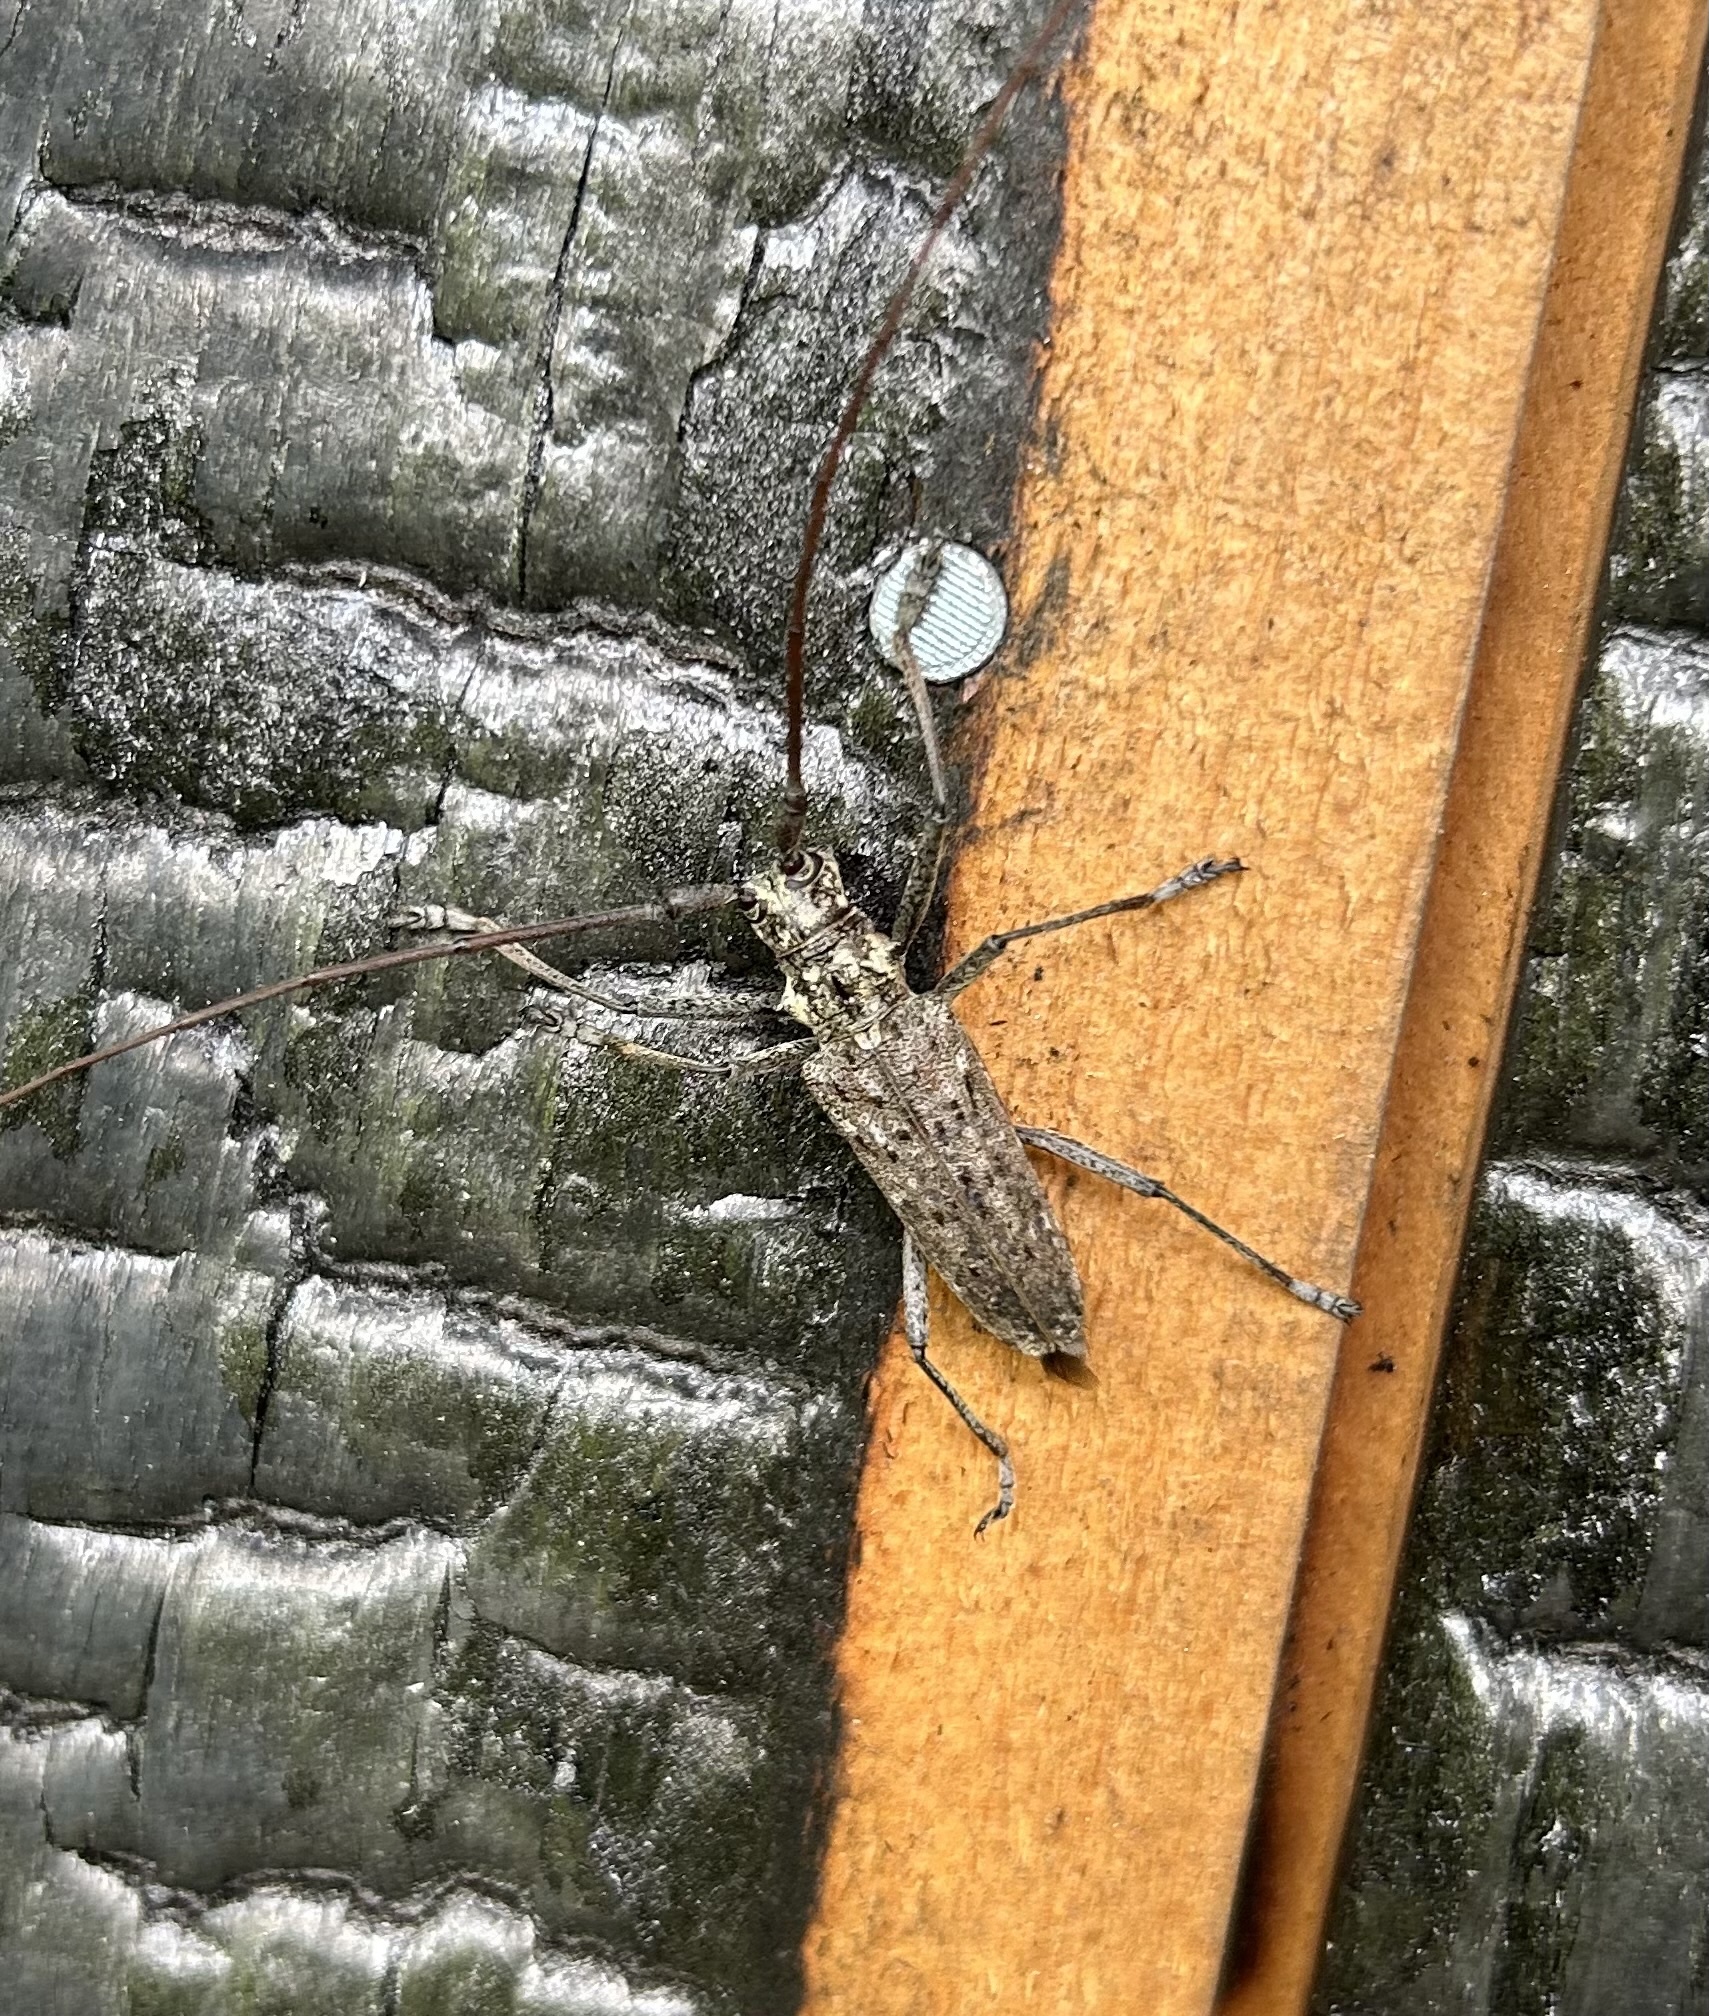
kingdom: Animalia
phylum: Arthropoda
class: Insecta
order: Coleoptera
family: Cerambycidae
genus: Monochamus
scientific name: Monochamus notatus
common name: Northeastern pine sawyer beetle
